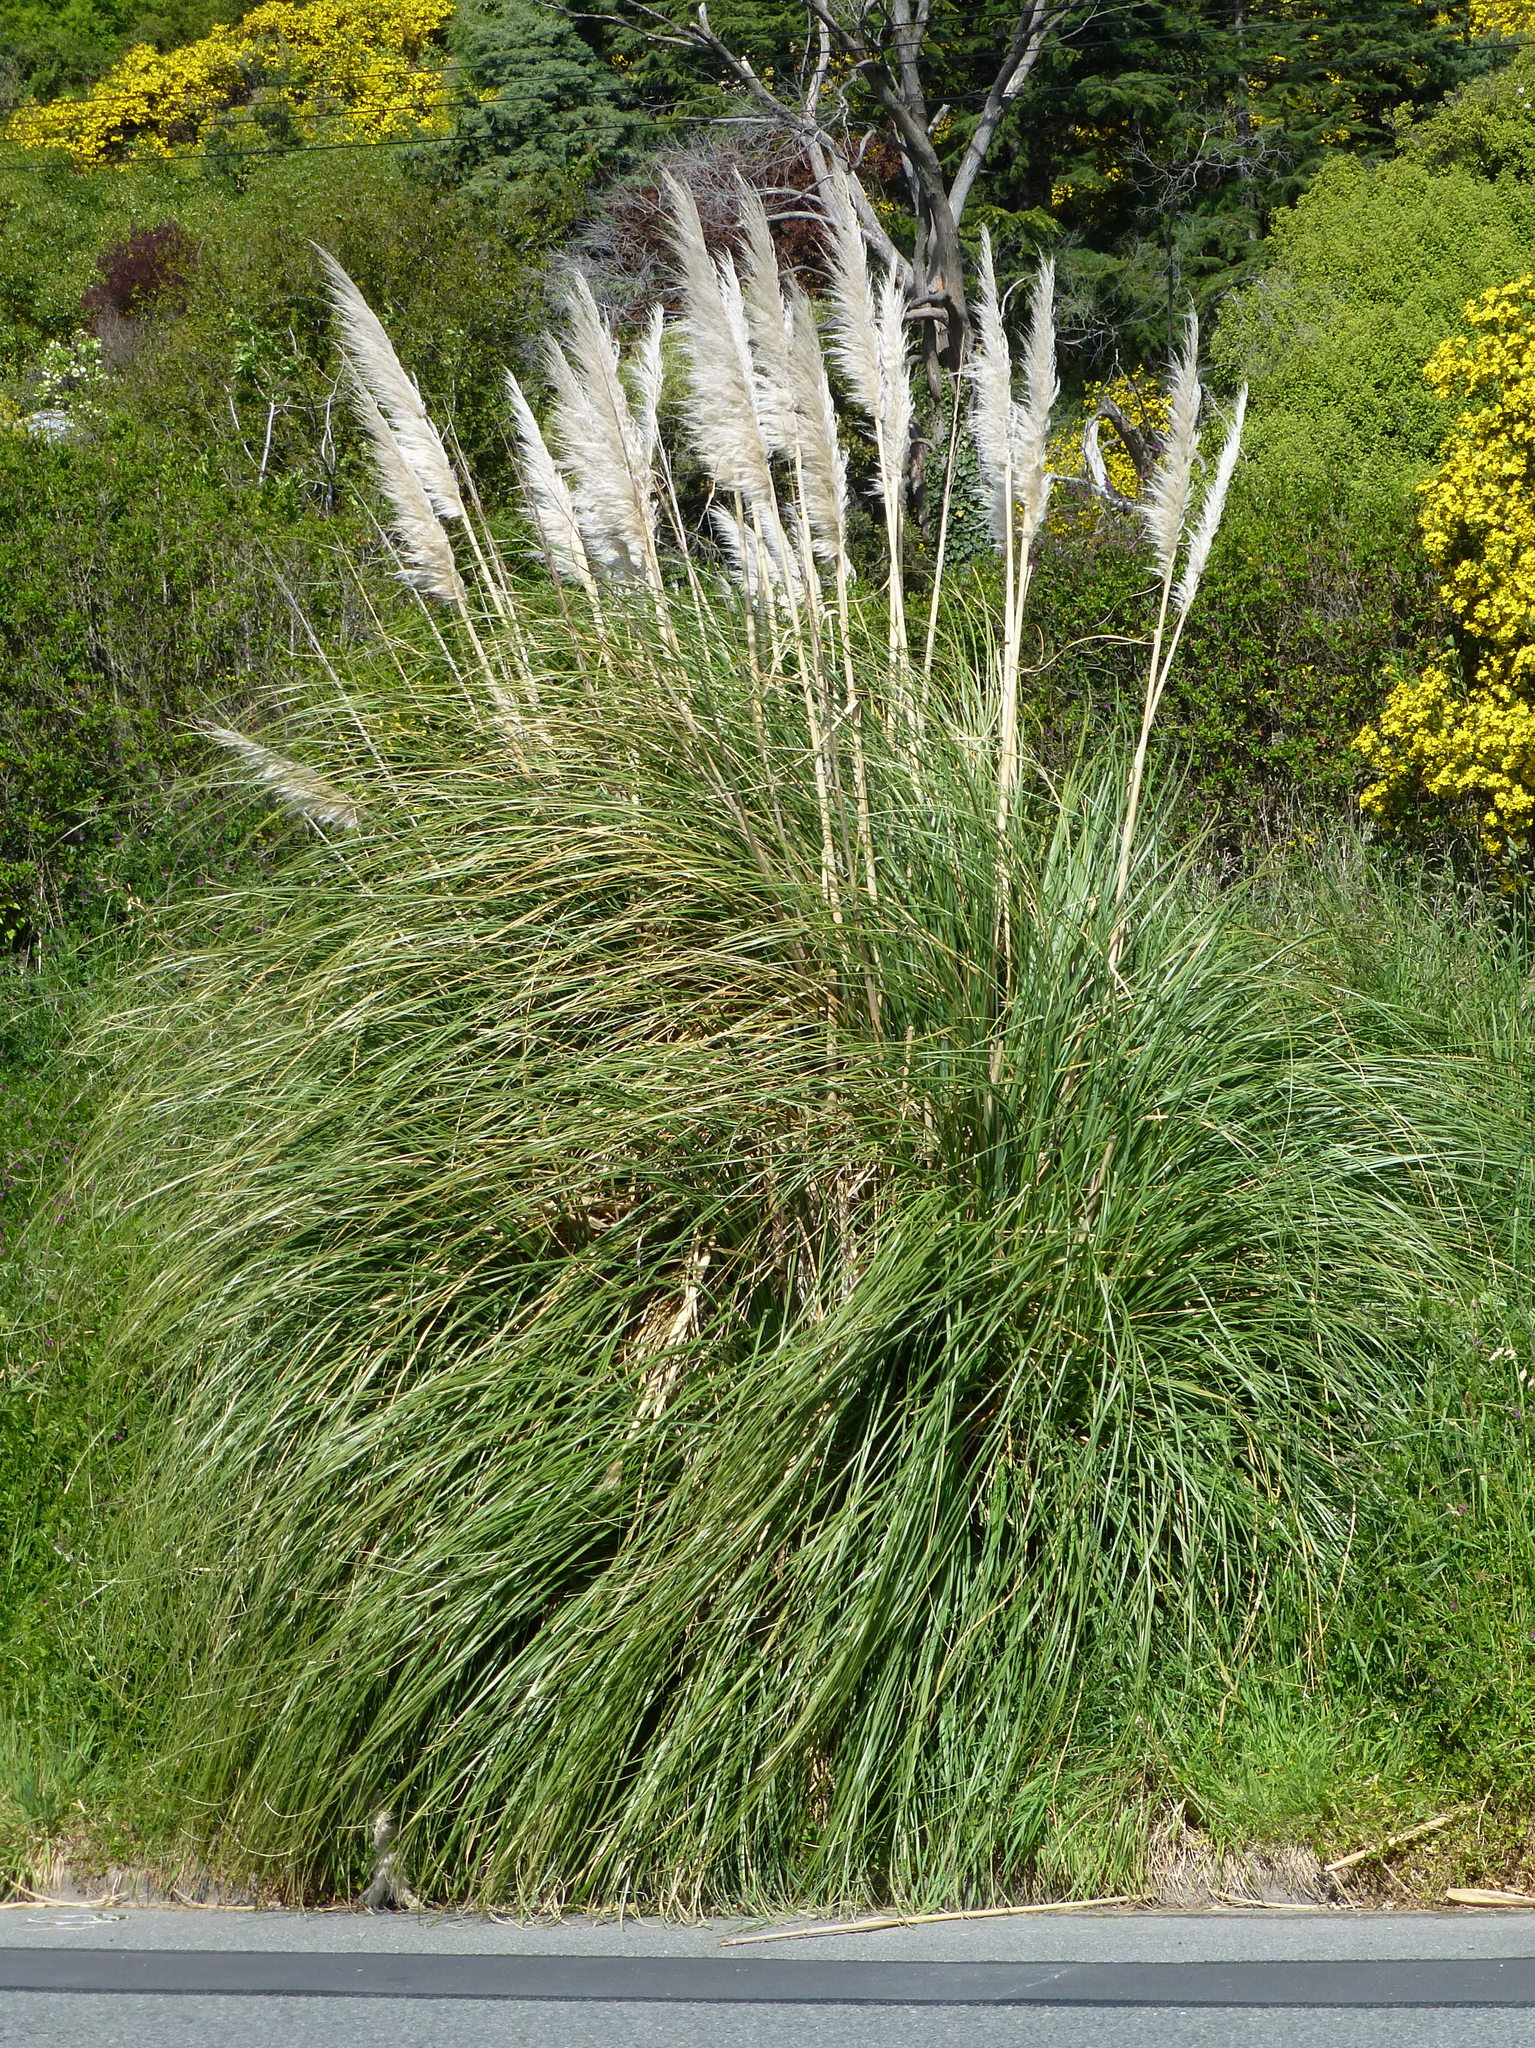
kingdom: Plantae
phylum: Tracheophyta
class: Liliopsida
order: Poales
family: Poaceae
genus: Cortaderia
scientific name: Cortaderia selloana
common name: Uruguayan pampas grass
